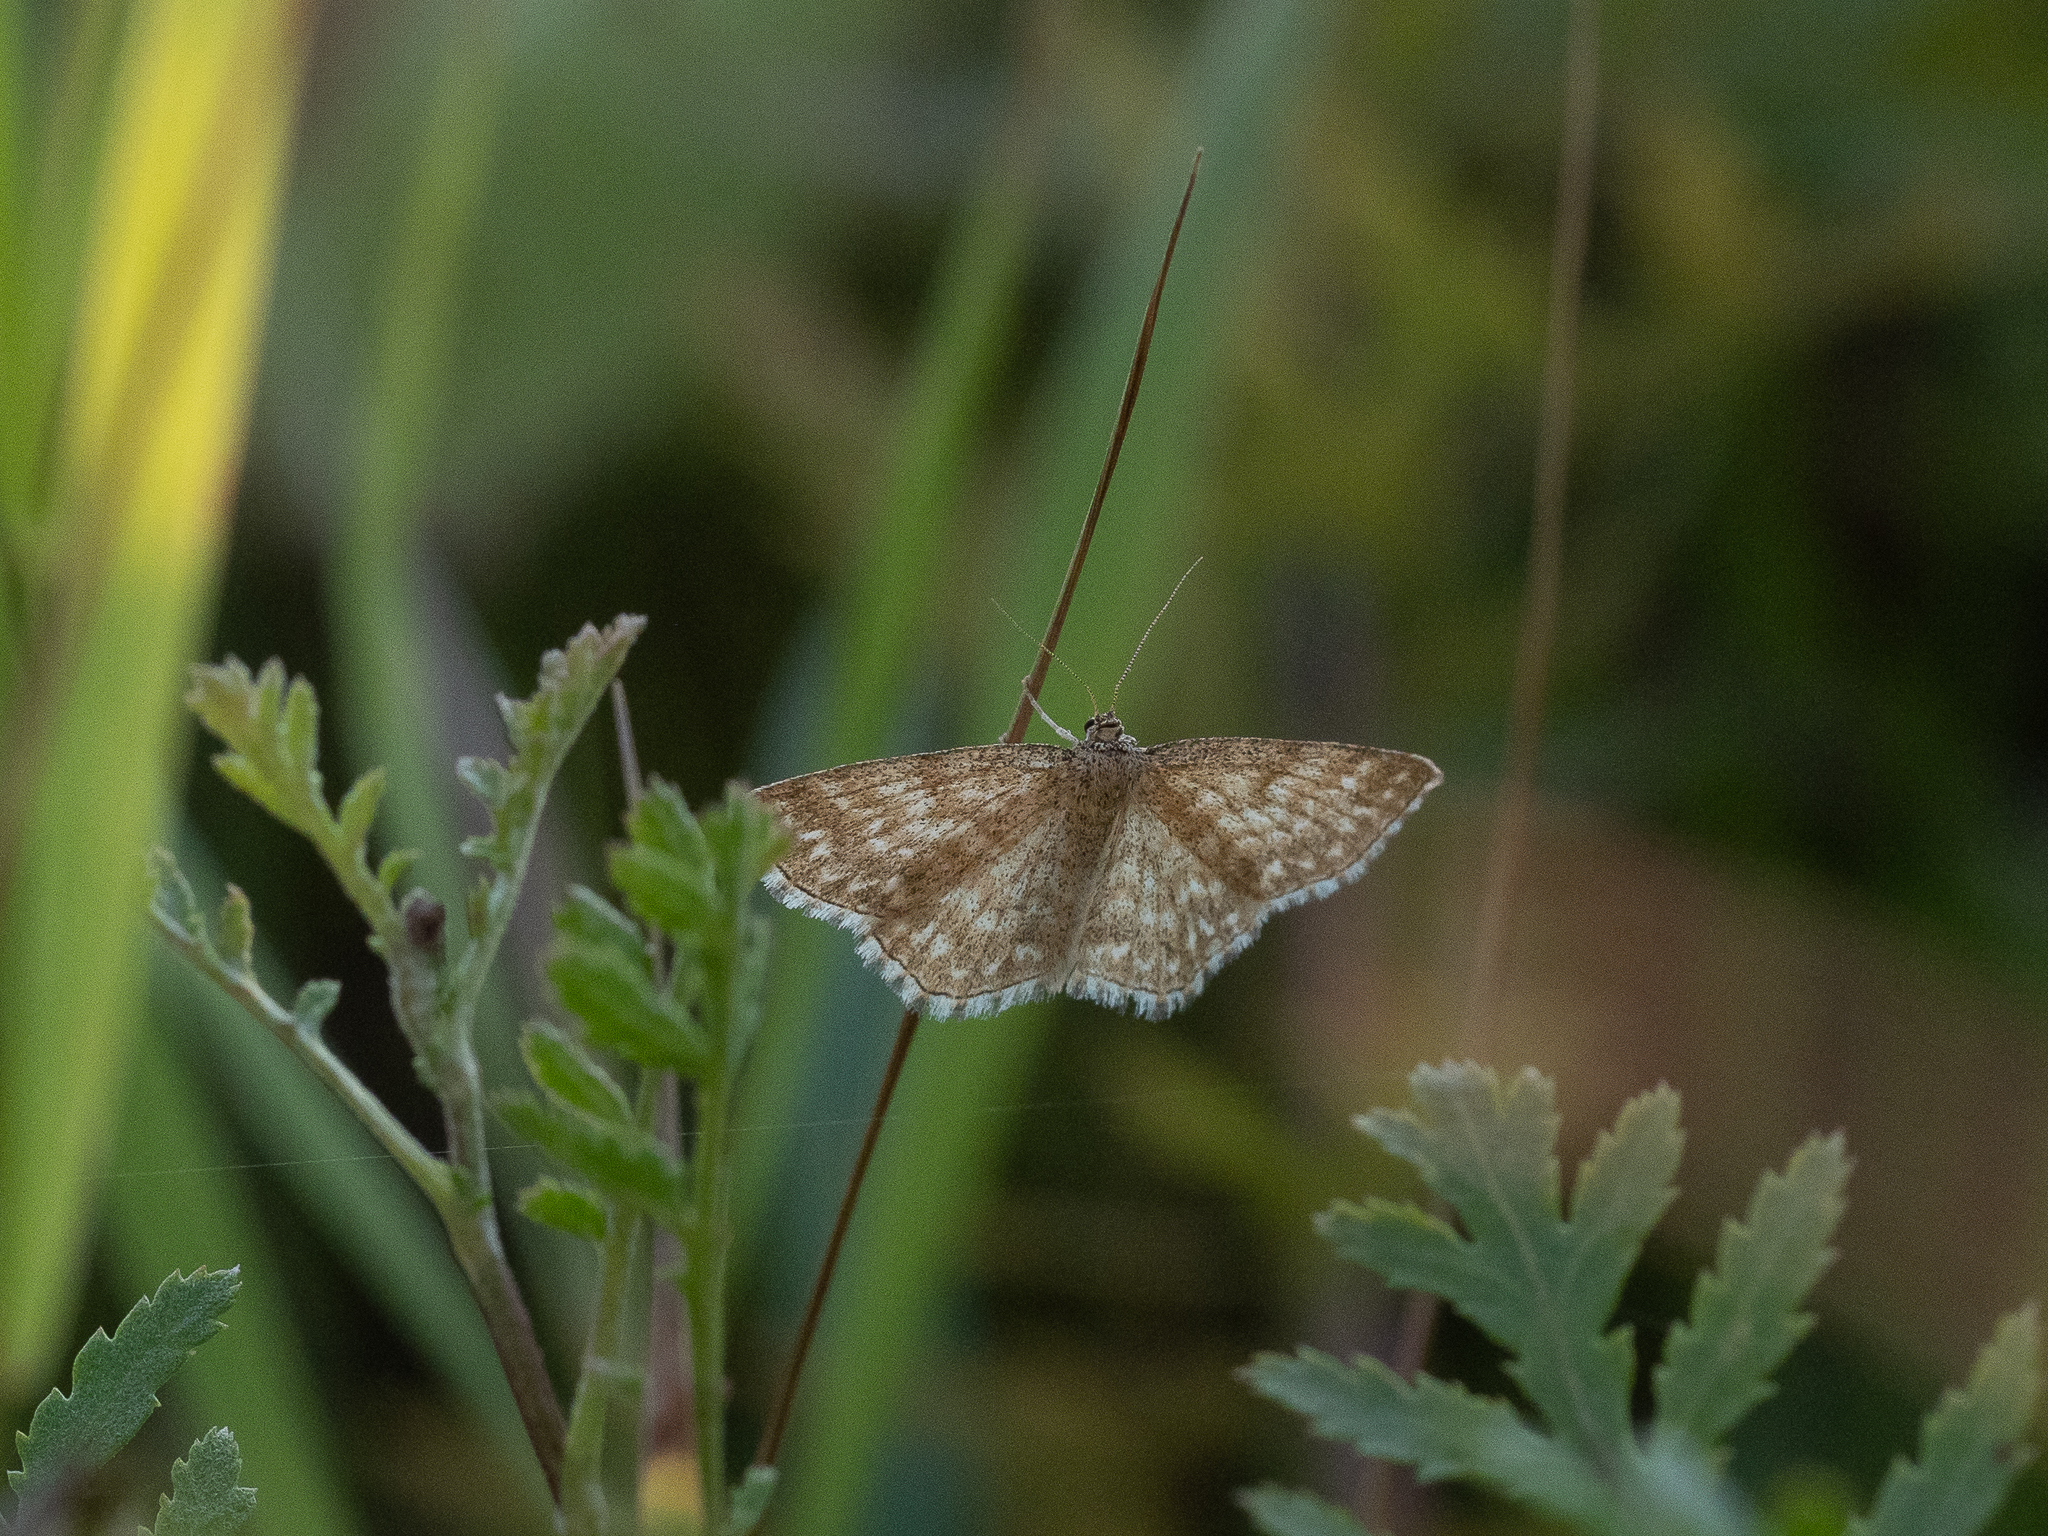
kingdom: Animalia
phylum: Arthropoda
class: Insecta
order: Lepidoptera
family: Geometridae
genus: Scopula
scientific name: Scopula immorata
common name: Lewes wave
